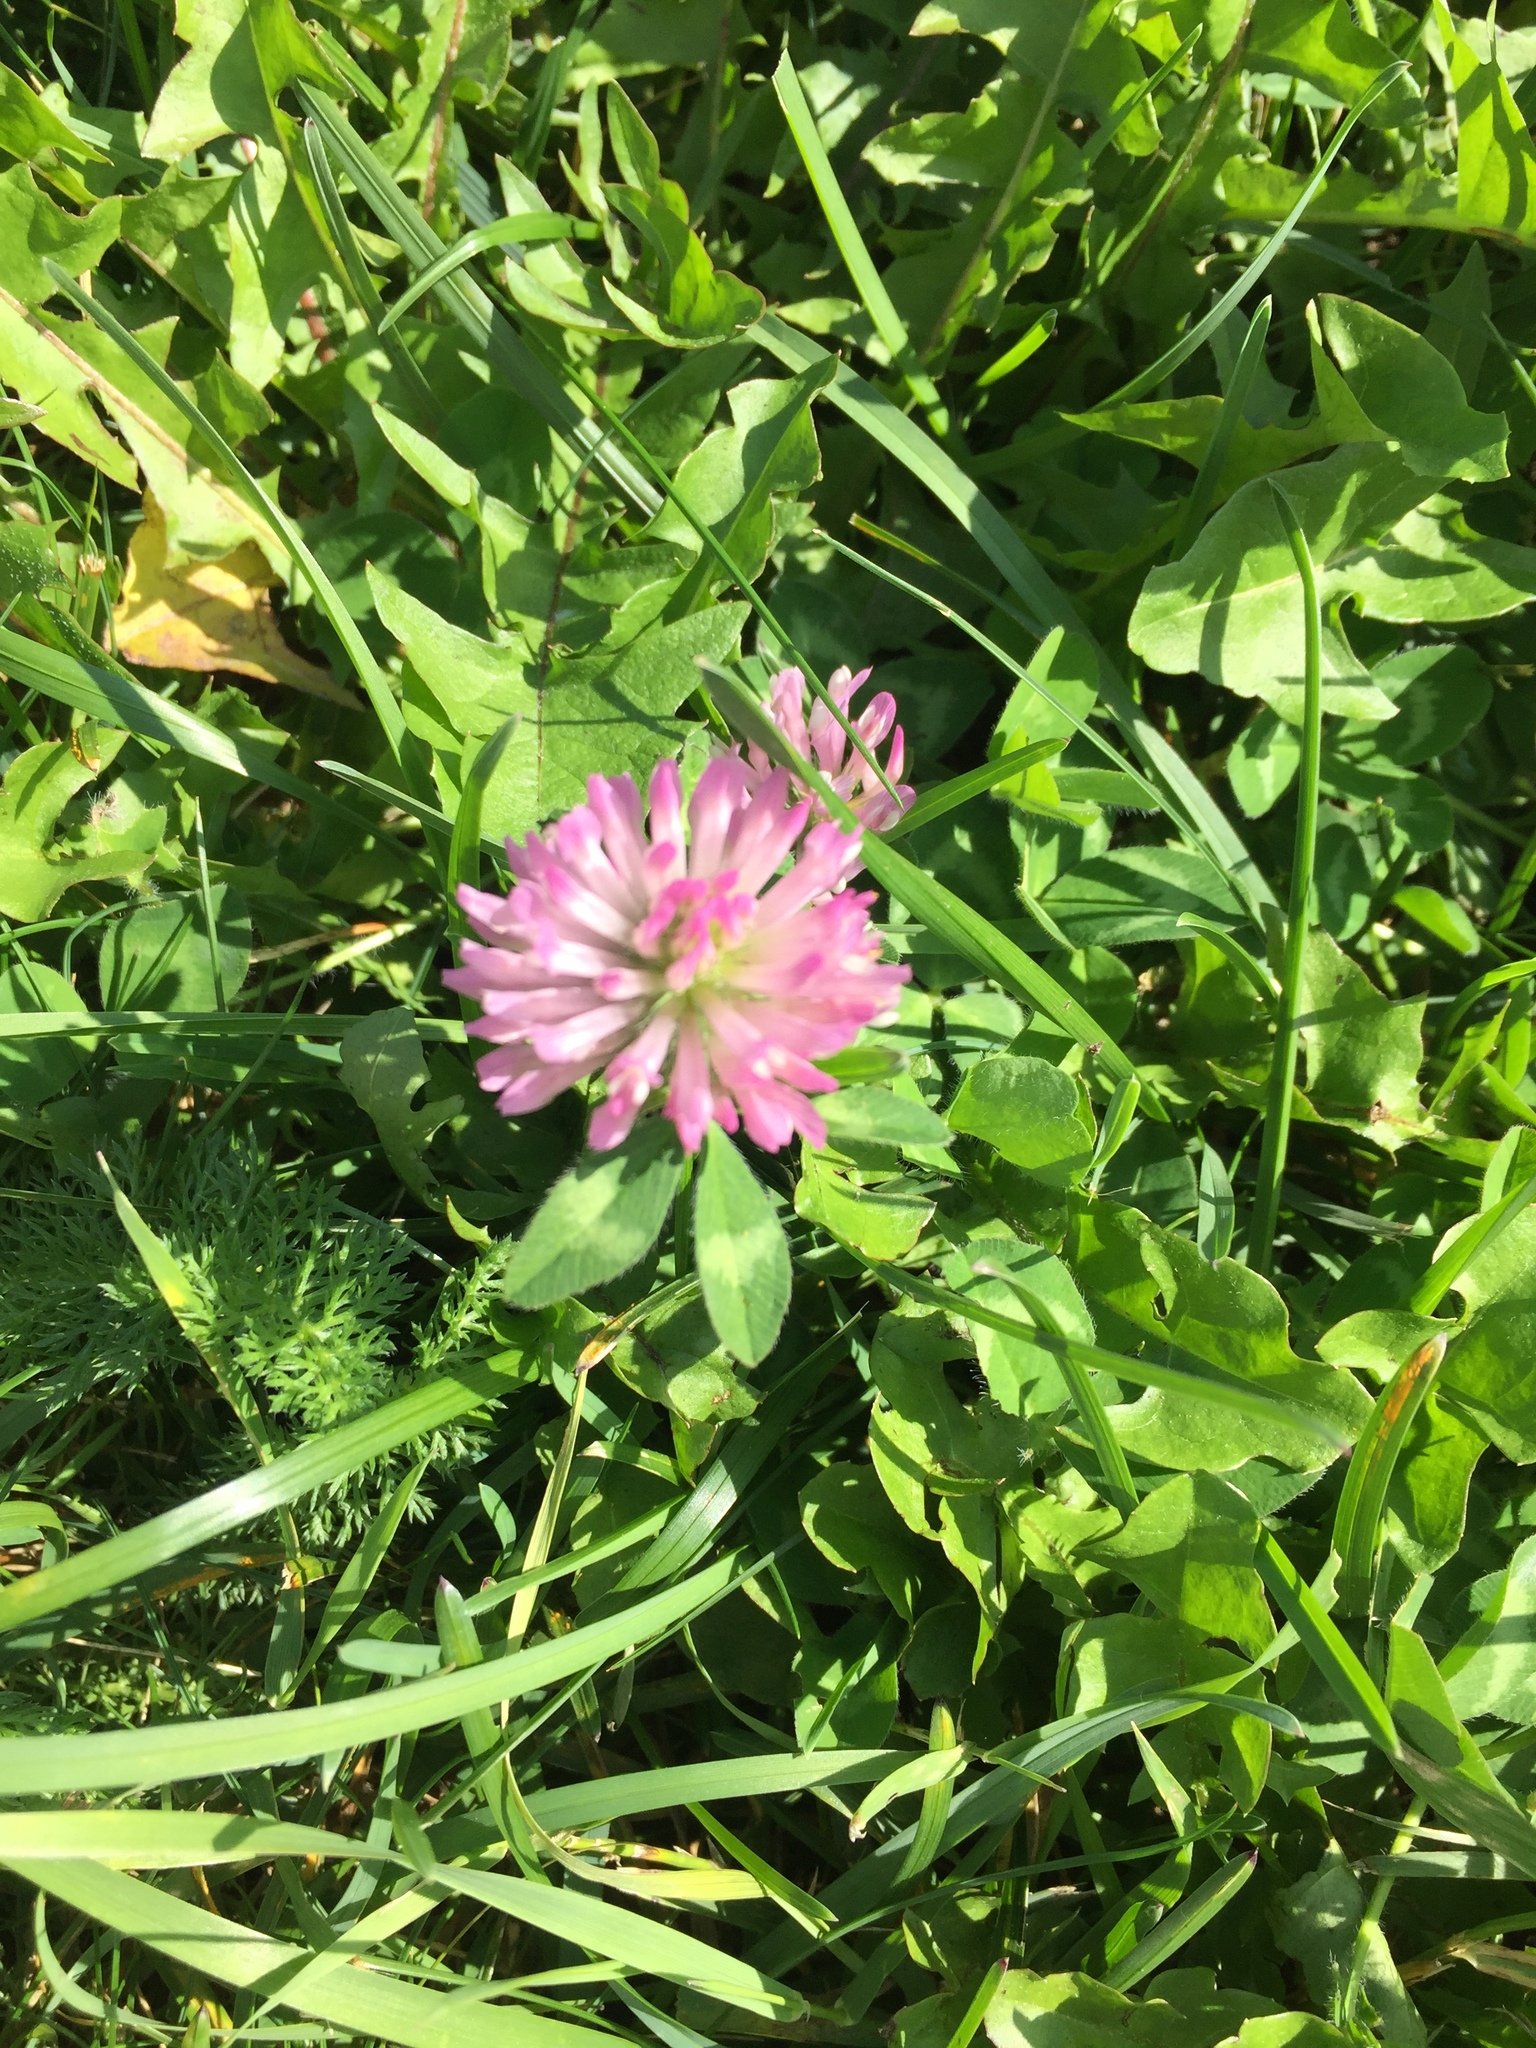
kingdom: Plantae
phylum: Tracheophyta
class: Magnoliopsida
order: Fabales
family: Fabaceae
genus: Trifolium
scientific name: Trifolium pratense
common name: Red clover
